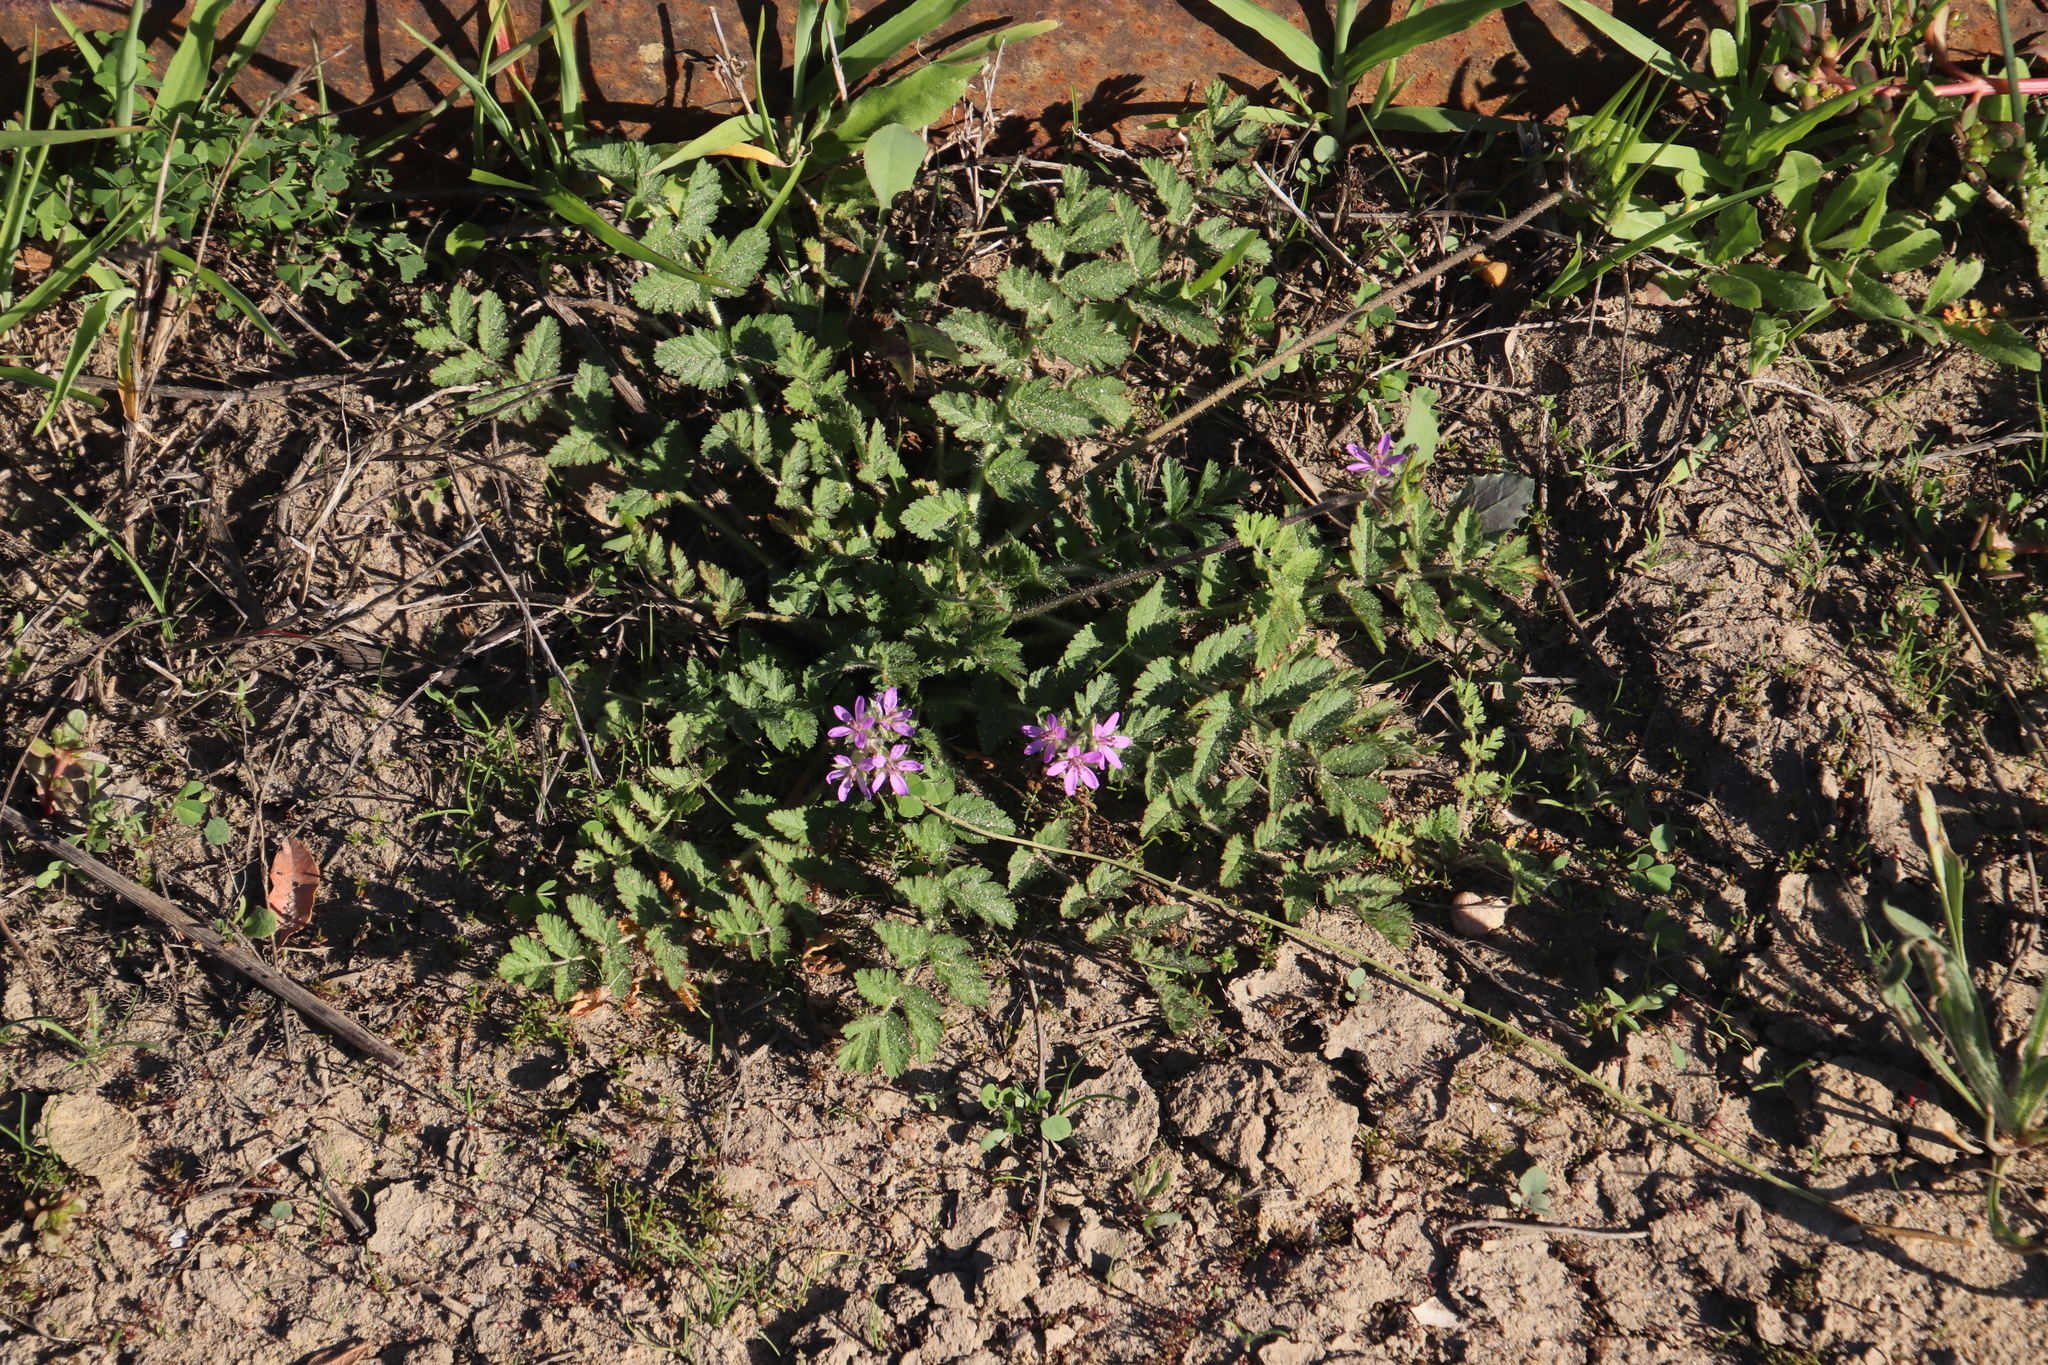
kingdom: Plantae
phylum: Tracheophyta
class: Magnoliopsida
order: Geraniales
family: Geraniaceae
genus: Erodium
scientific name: Erodium moschatum
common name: Musk stork's-bill
